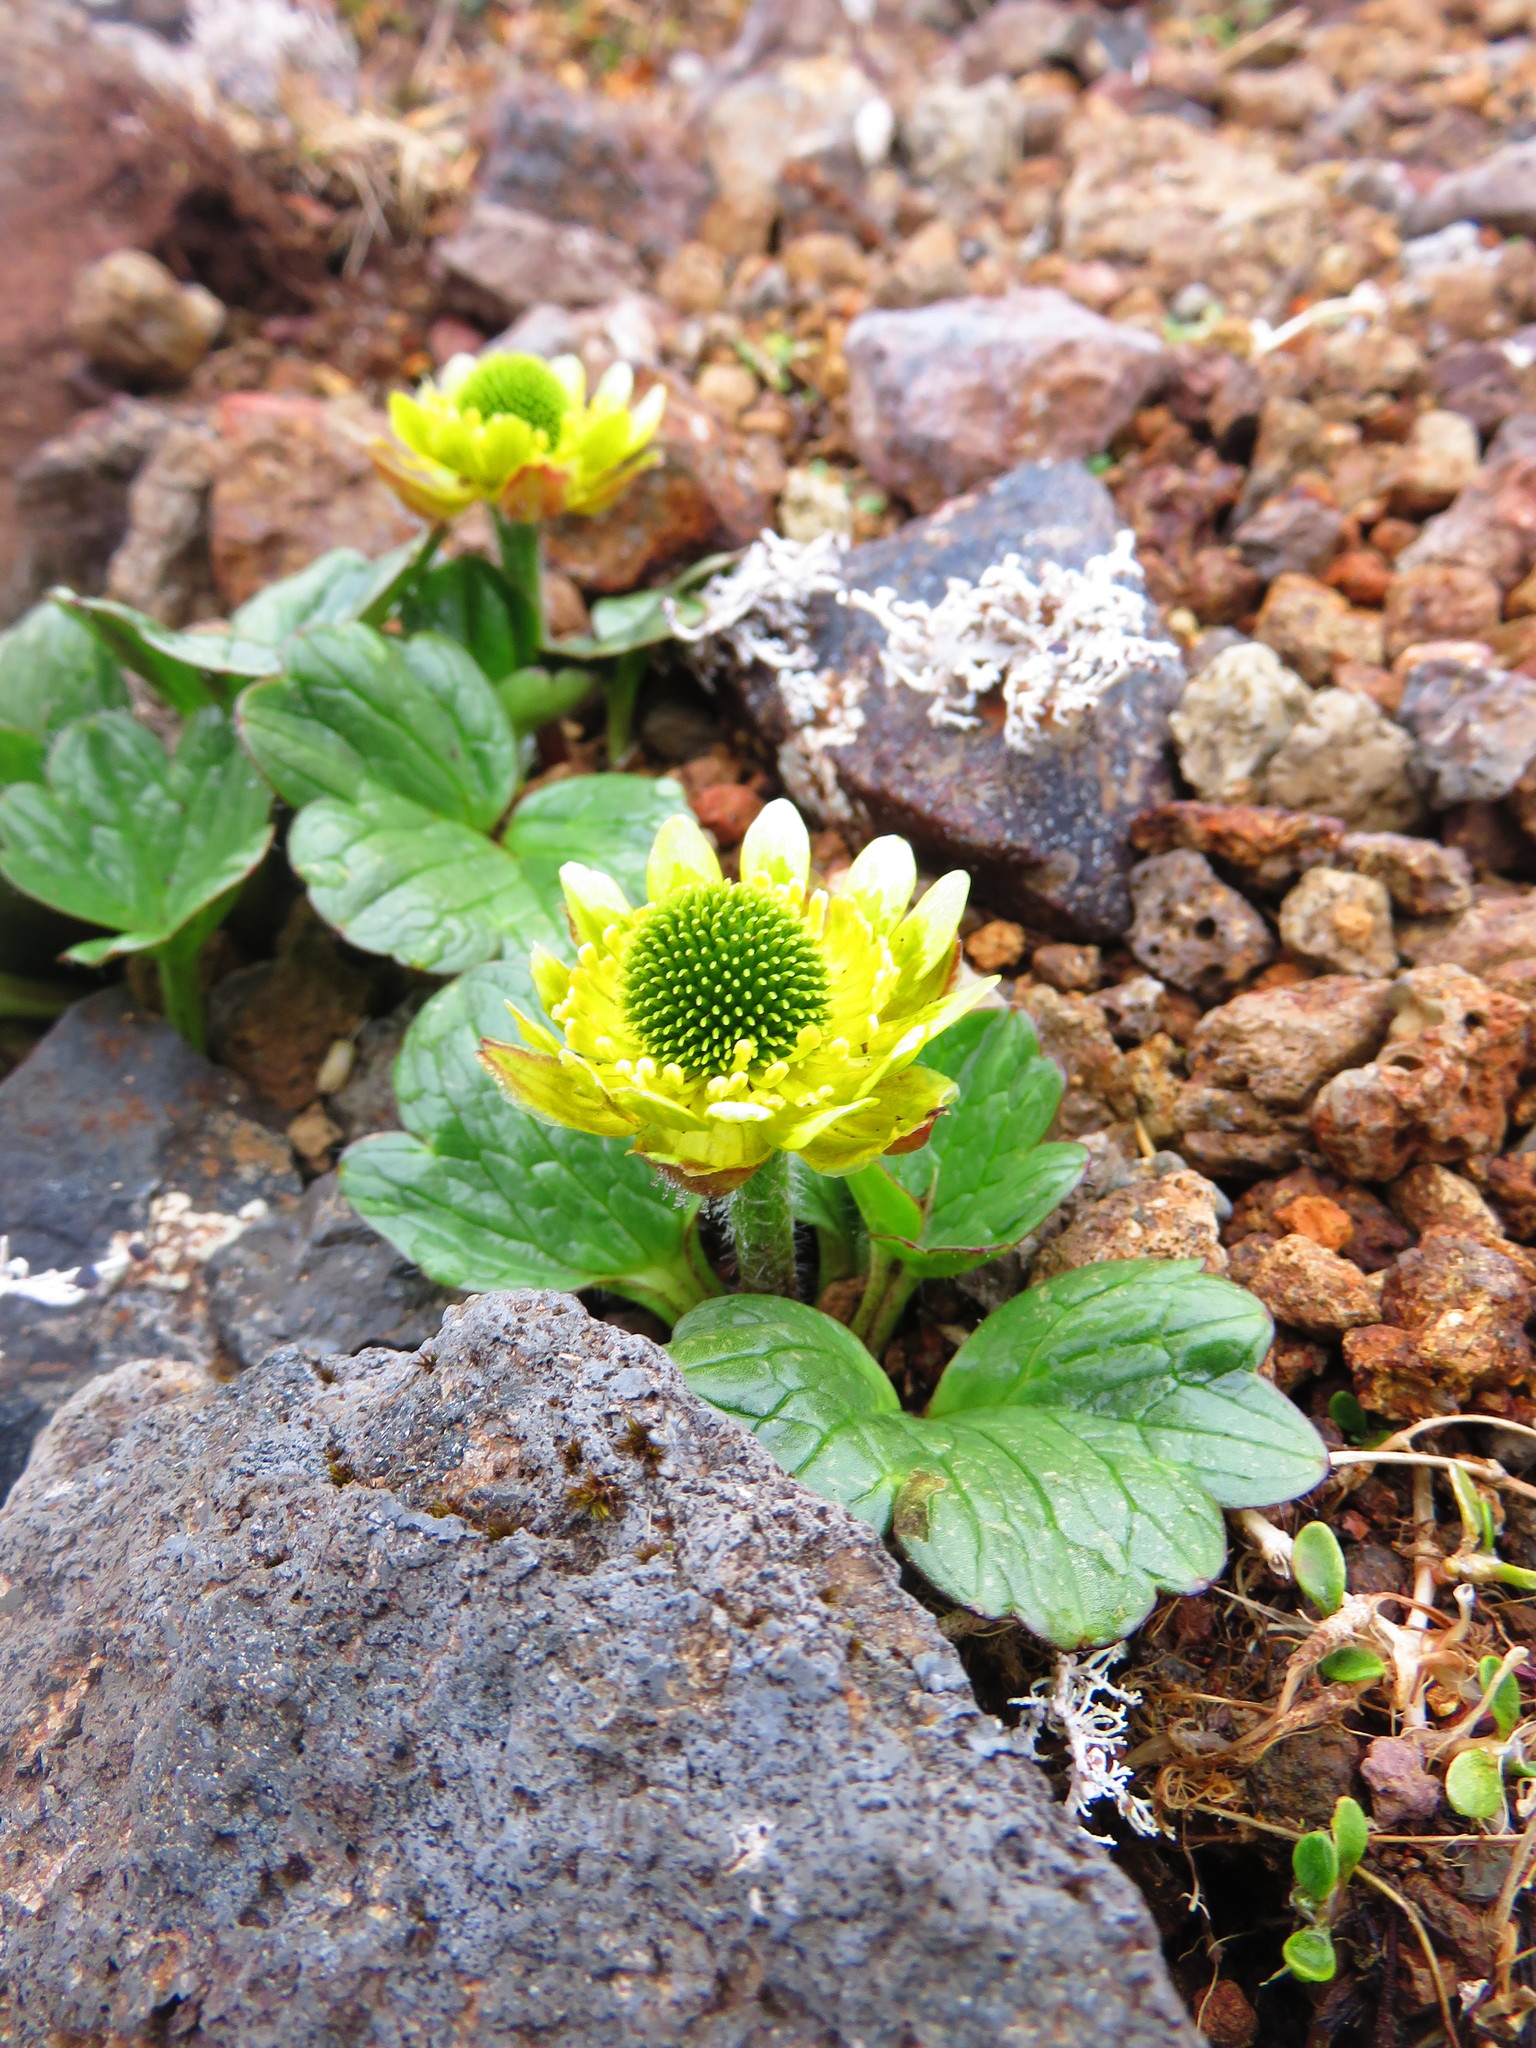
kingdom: Plantae
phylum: Tracheophyta
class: Magnoliopsida
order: Ranunculales
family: Ranunculaceae
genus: Ranunculus
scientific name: Ranunculus pinguis
